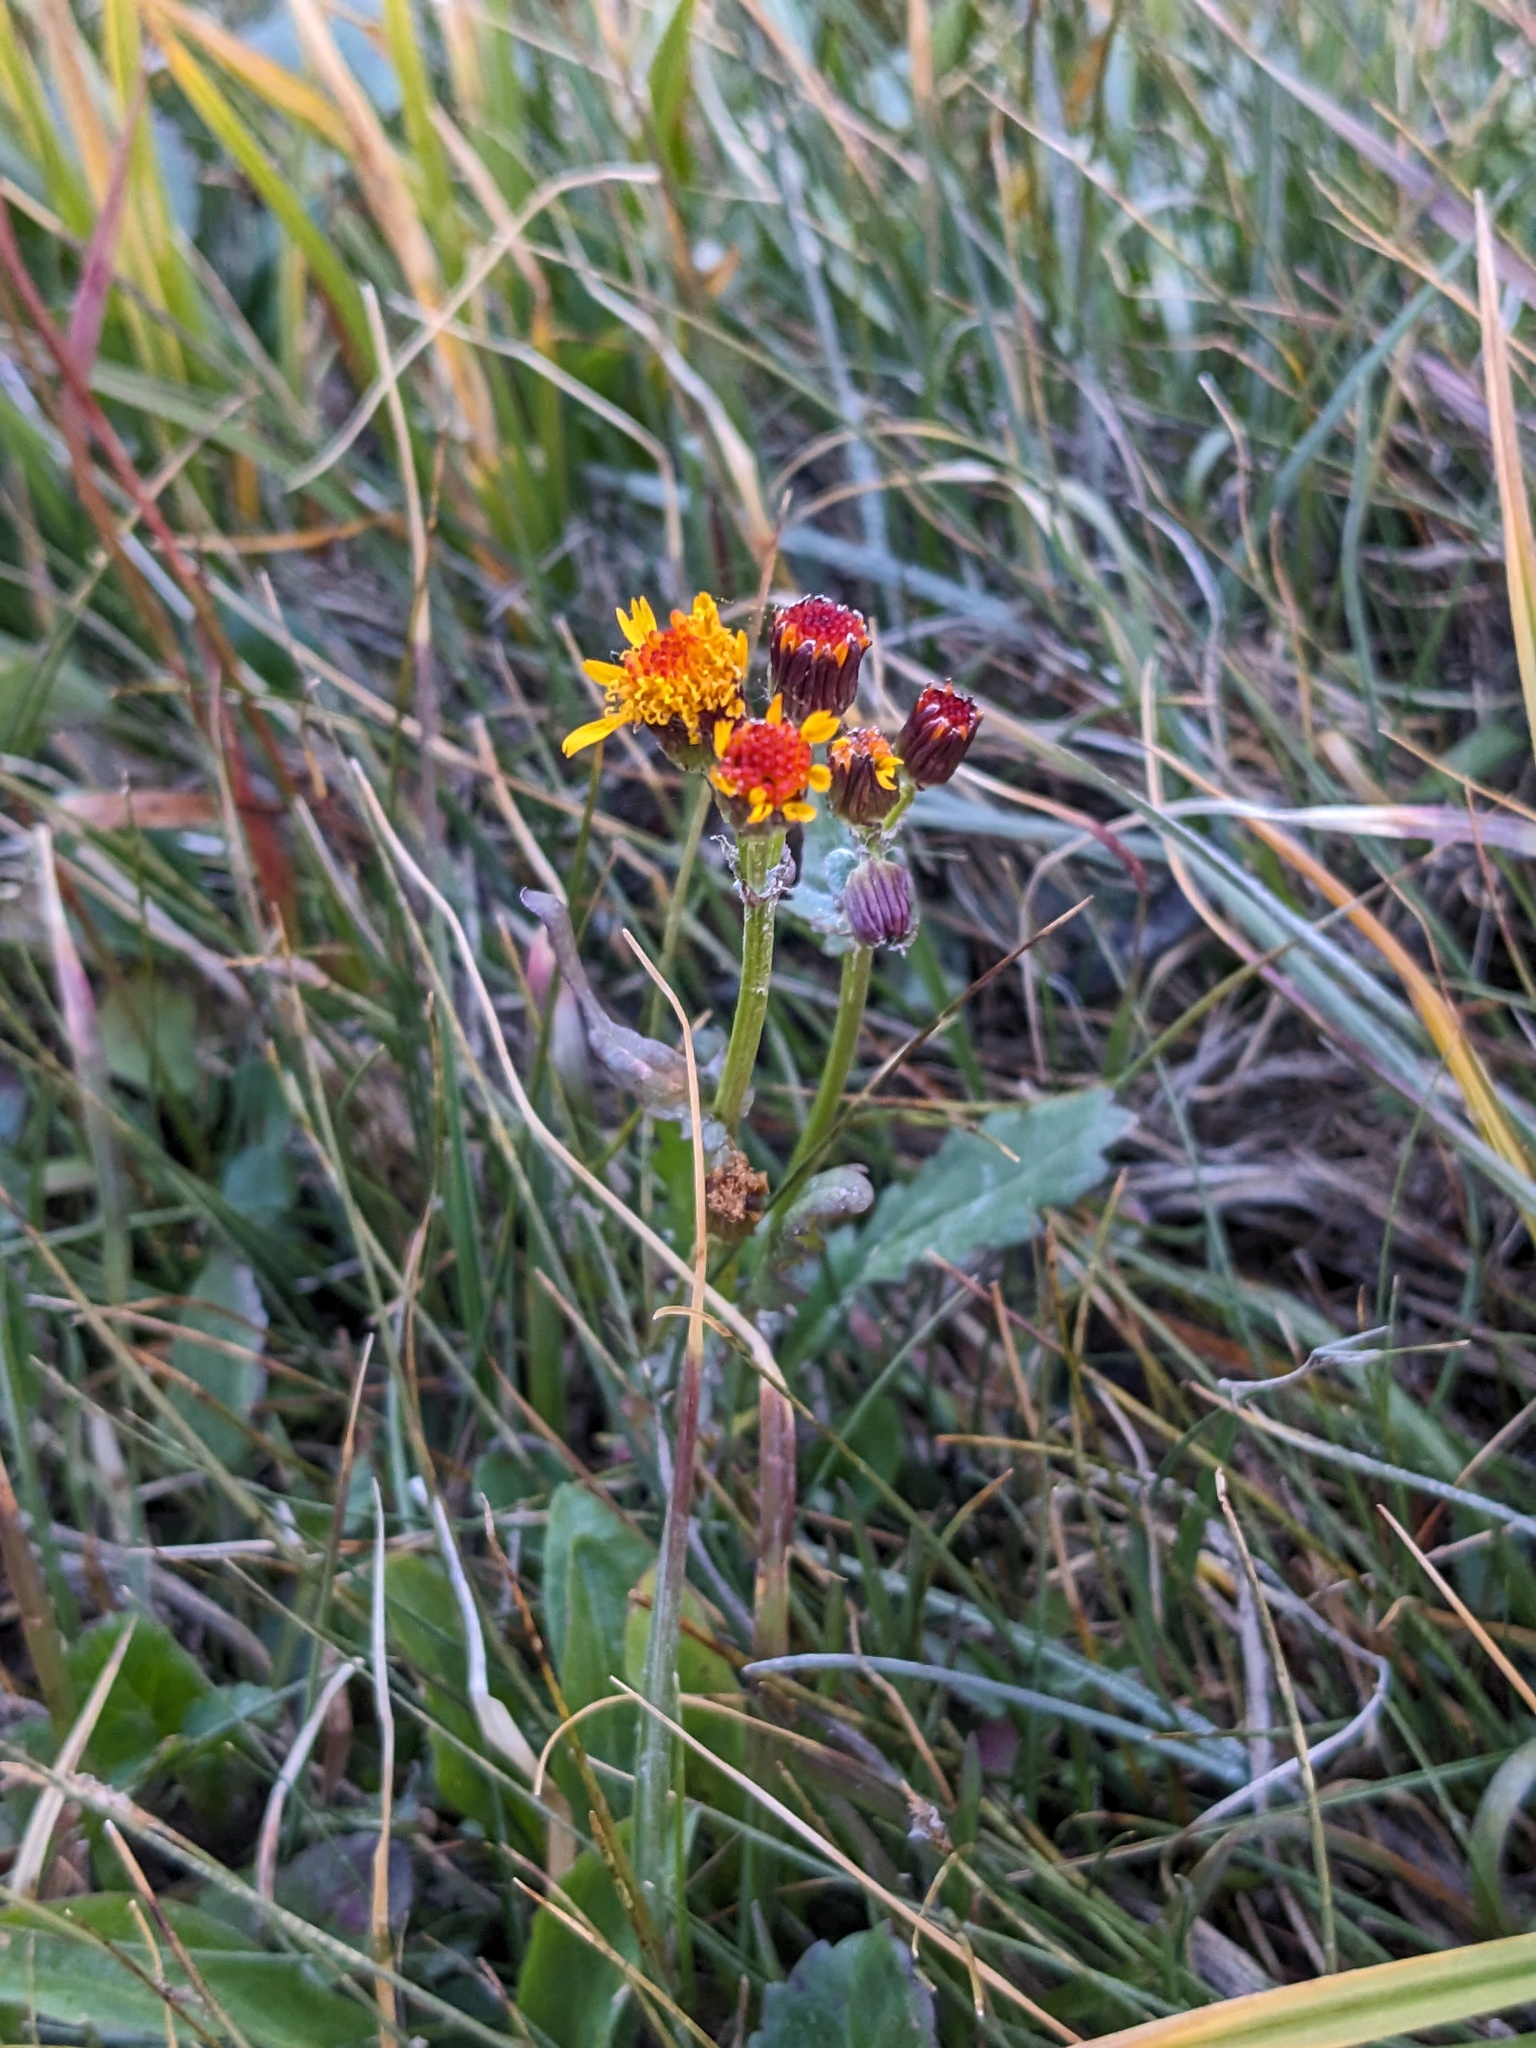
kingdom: Plantae
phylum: Tracheophyta
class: Magnoliopsida
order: Asterales
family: Asteraceae
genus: Packera
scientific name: Packera pauciflora
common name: Alpine groundsel
